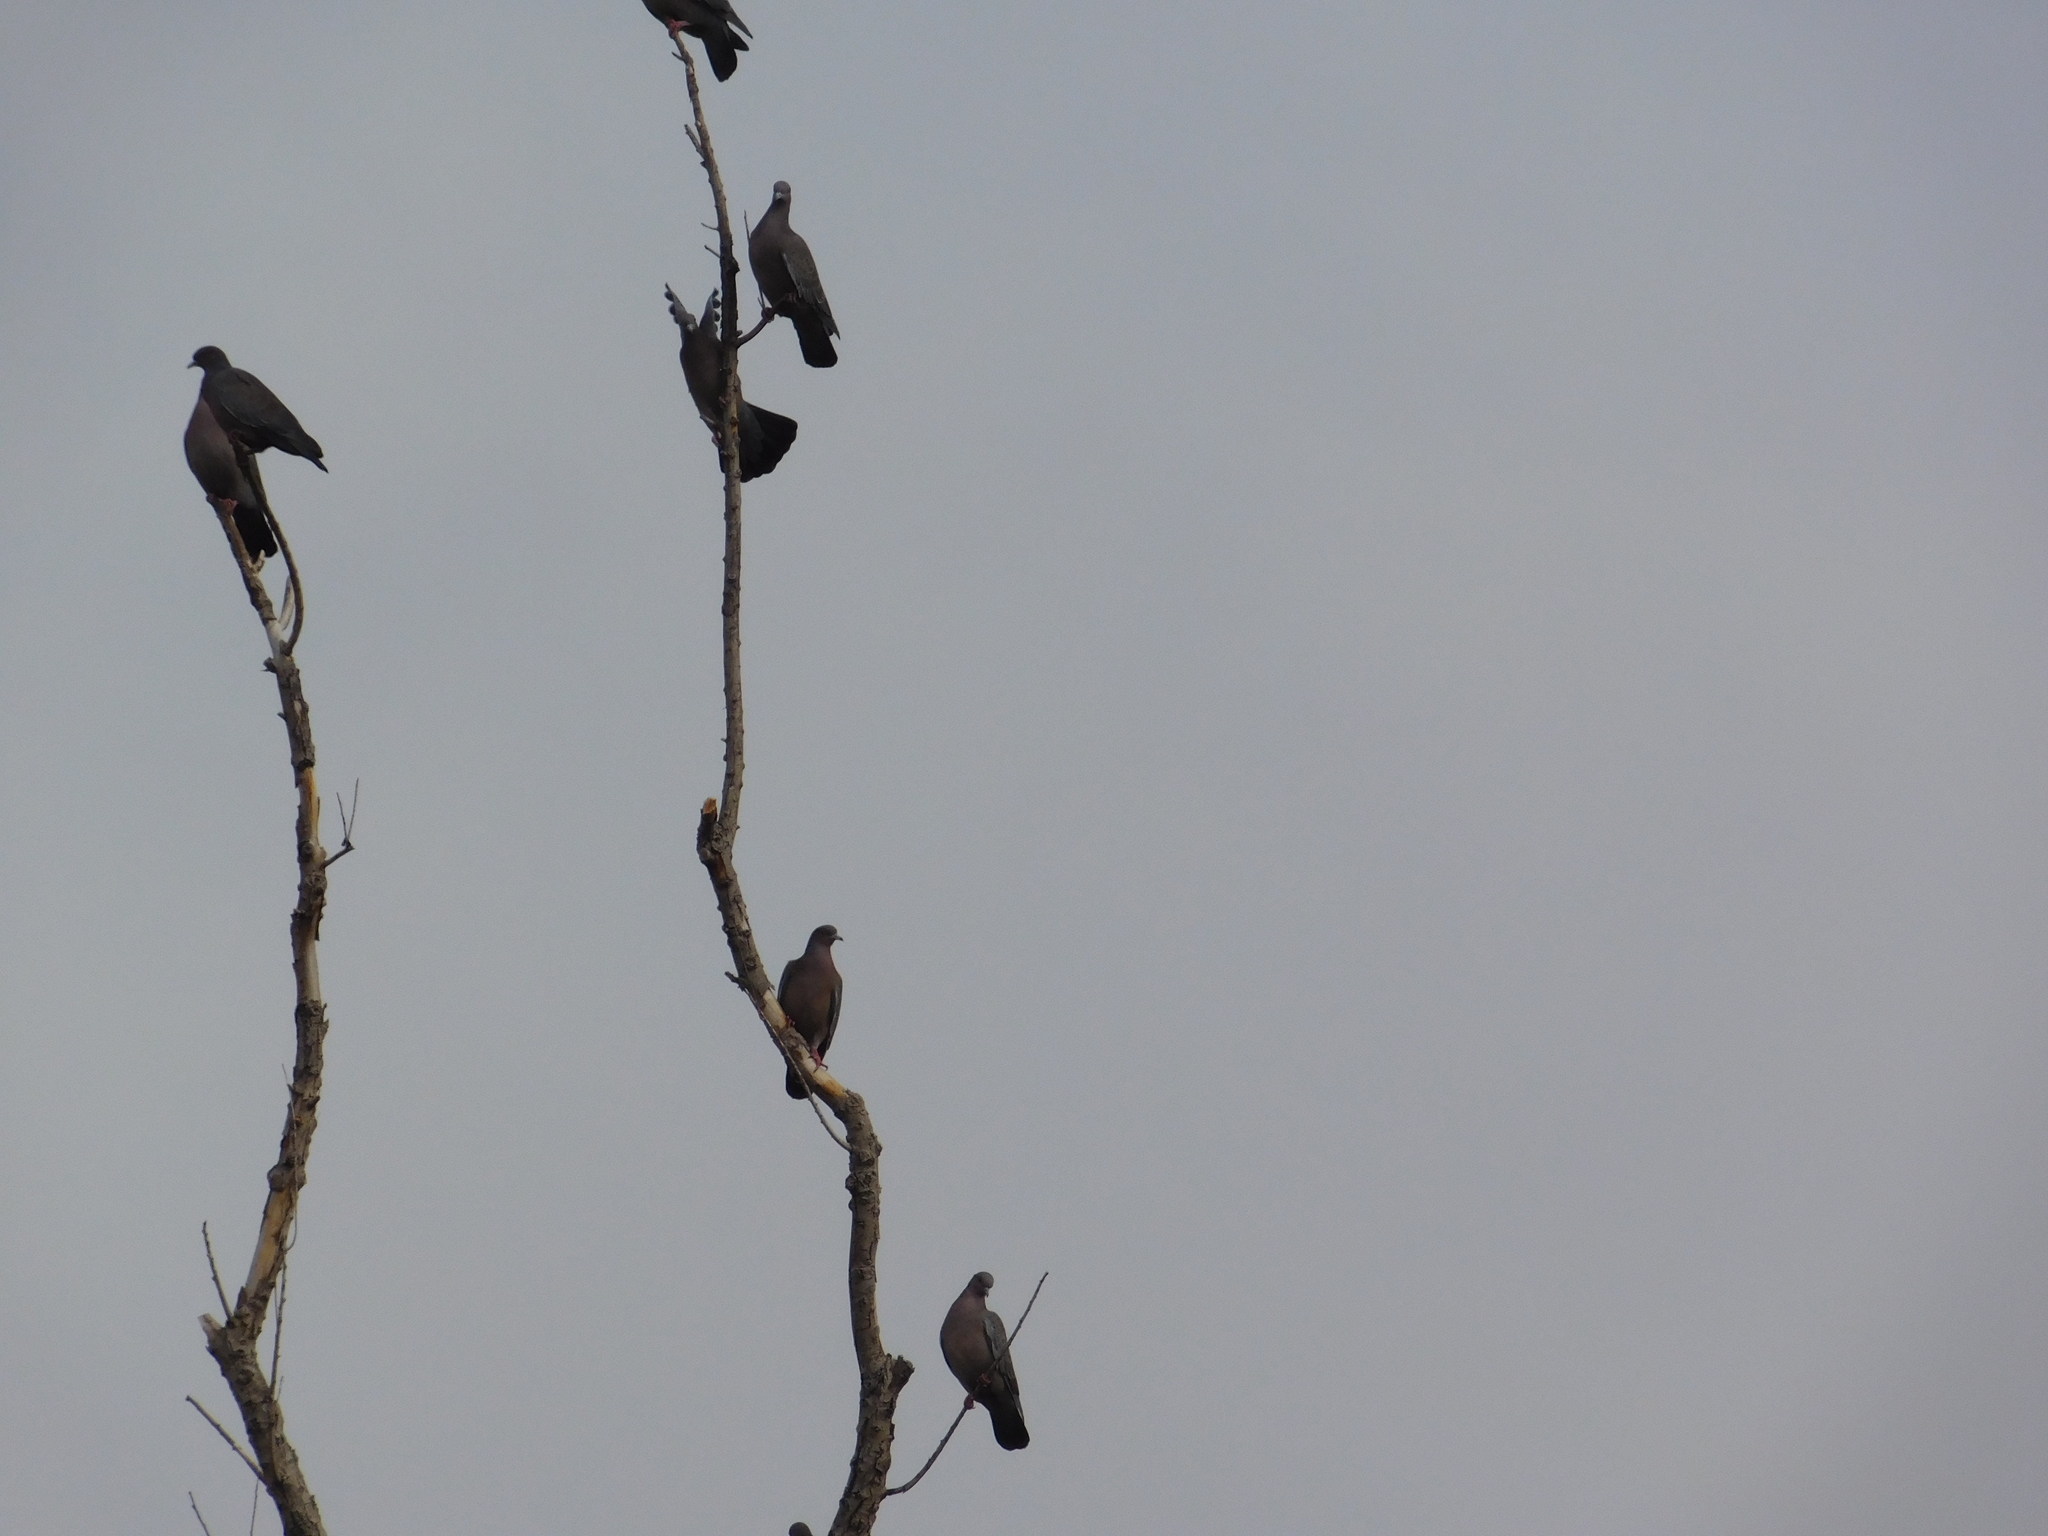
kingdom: Animalia
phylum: Chordata
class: Aves
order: Columbiformes
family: Columbidae
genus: Patagioenas
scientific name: Patagioenas picazuro
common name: Picazuro pigeon
